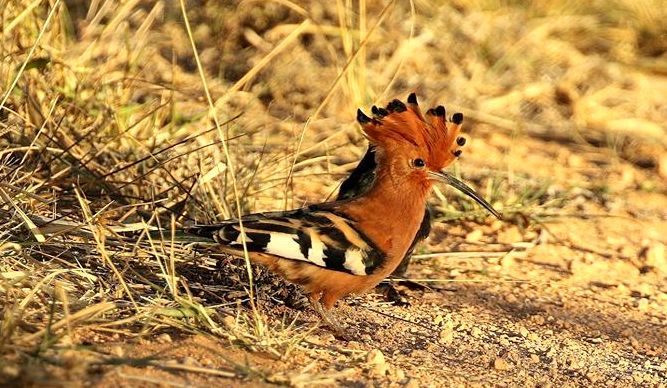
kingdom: Animalia
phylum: Chordata
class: Aves
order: Bucerotiformes
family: Upupidae
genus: Upupa
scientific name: Upupa africana
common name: African hoopoe
